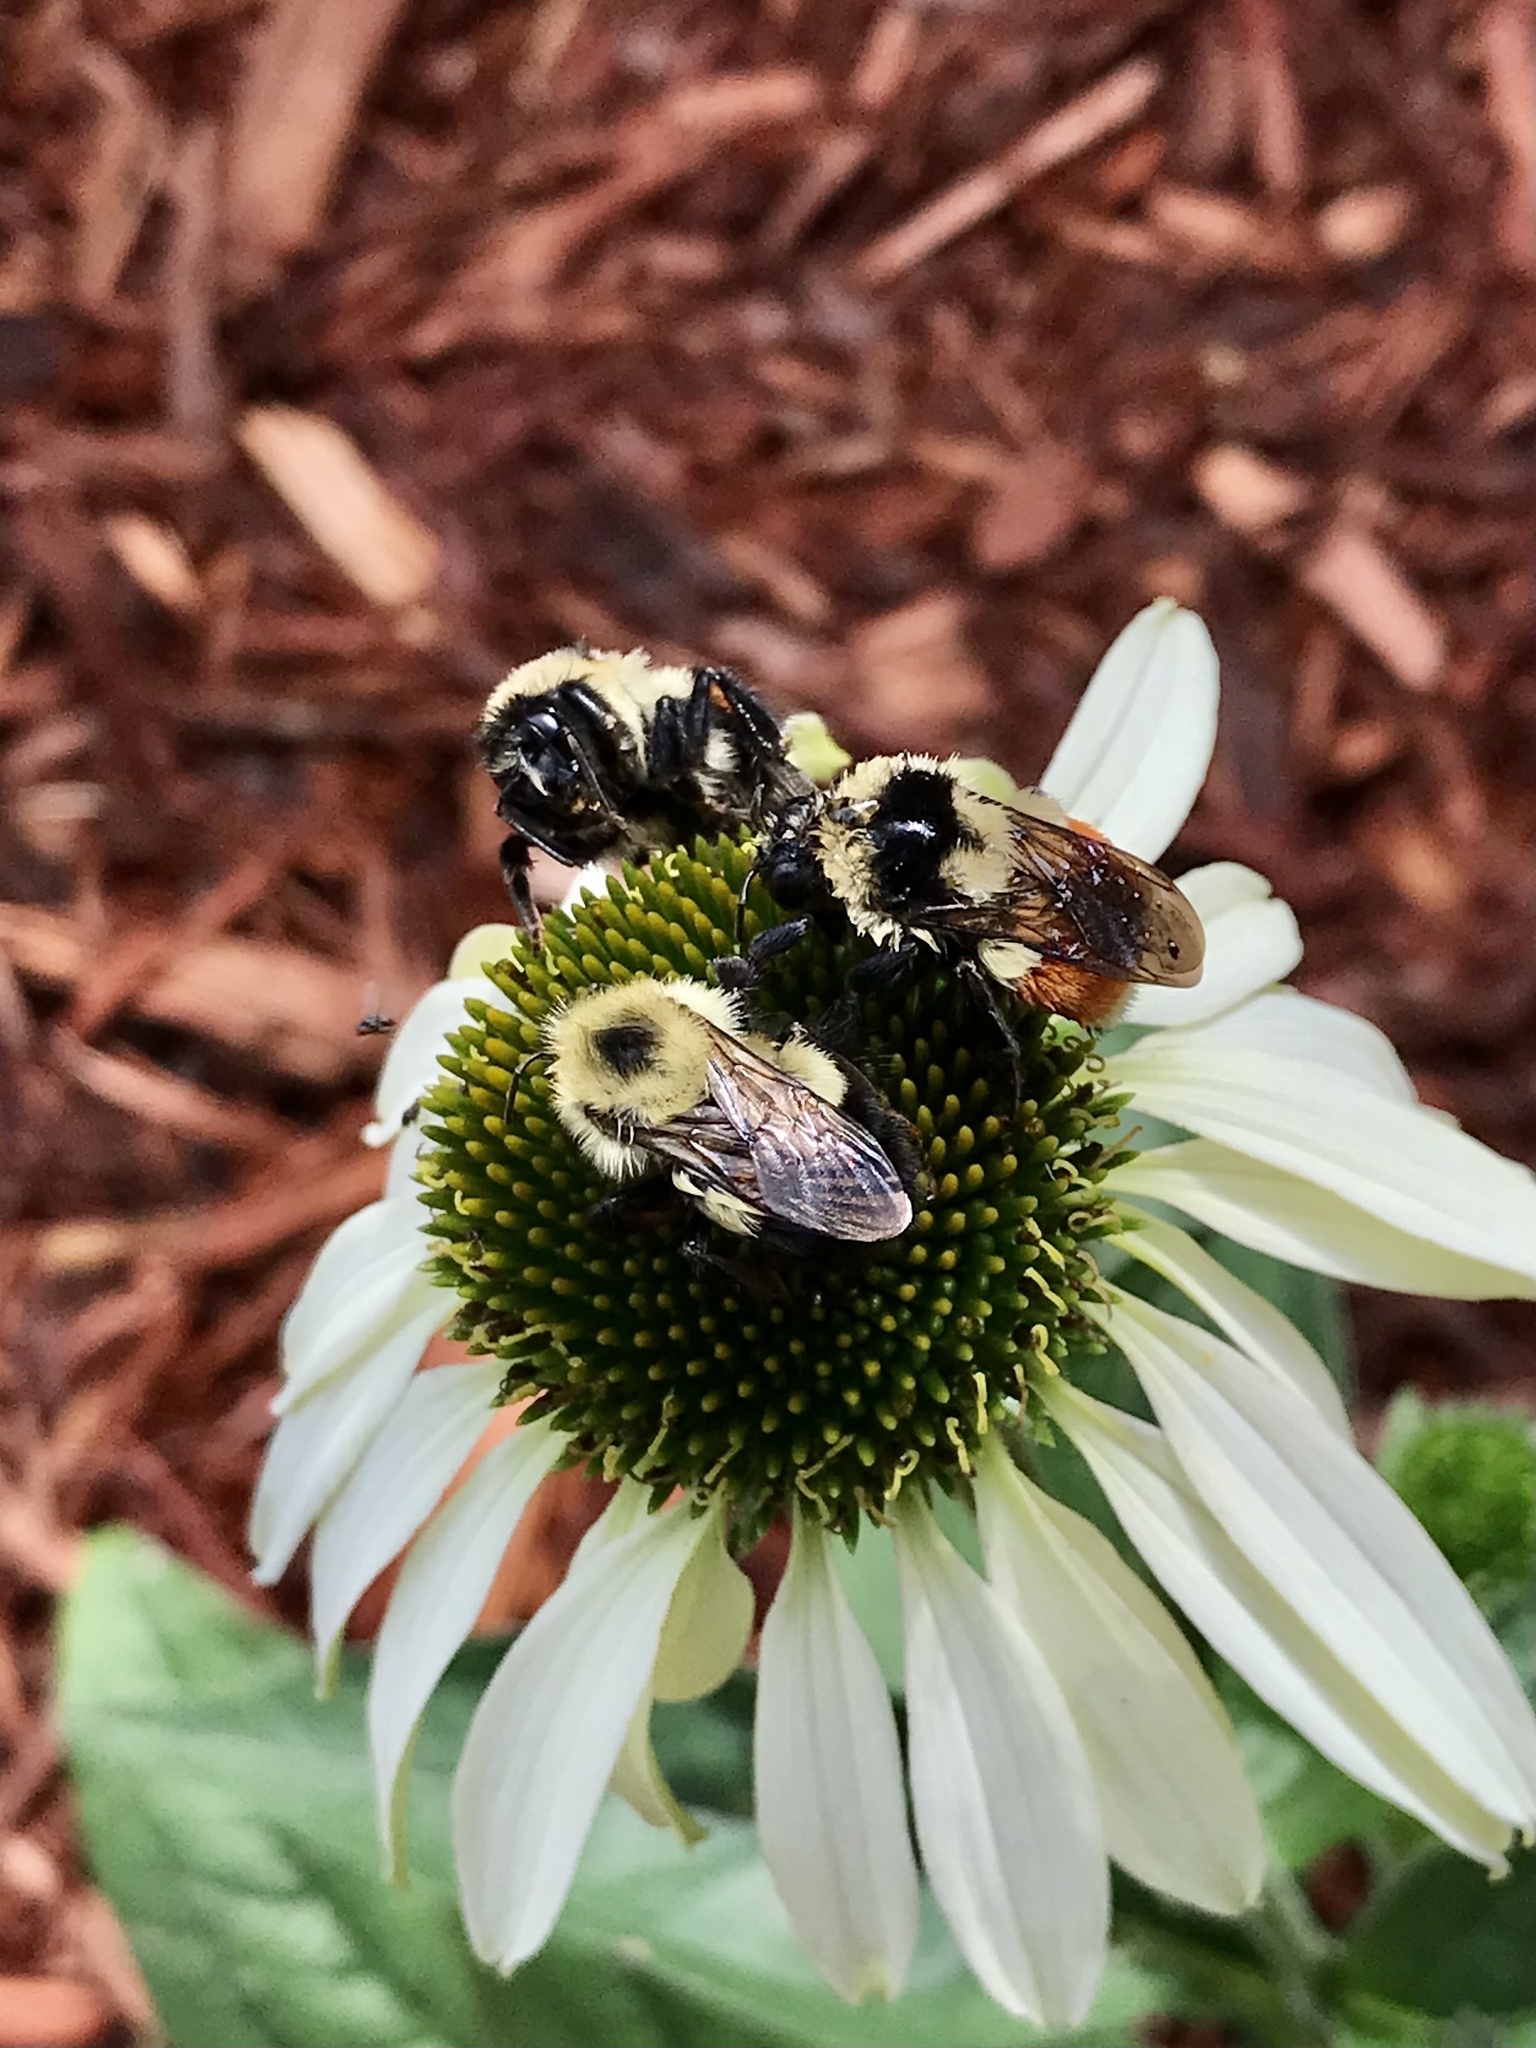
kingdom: Animalia
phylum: Arthropoda
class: Insecta
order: Hymenoptera
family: Apidae
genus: Bombus
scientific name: Bombus ternarius
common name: Tri-colored bumble bee
